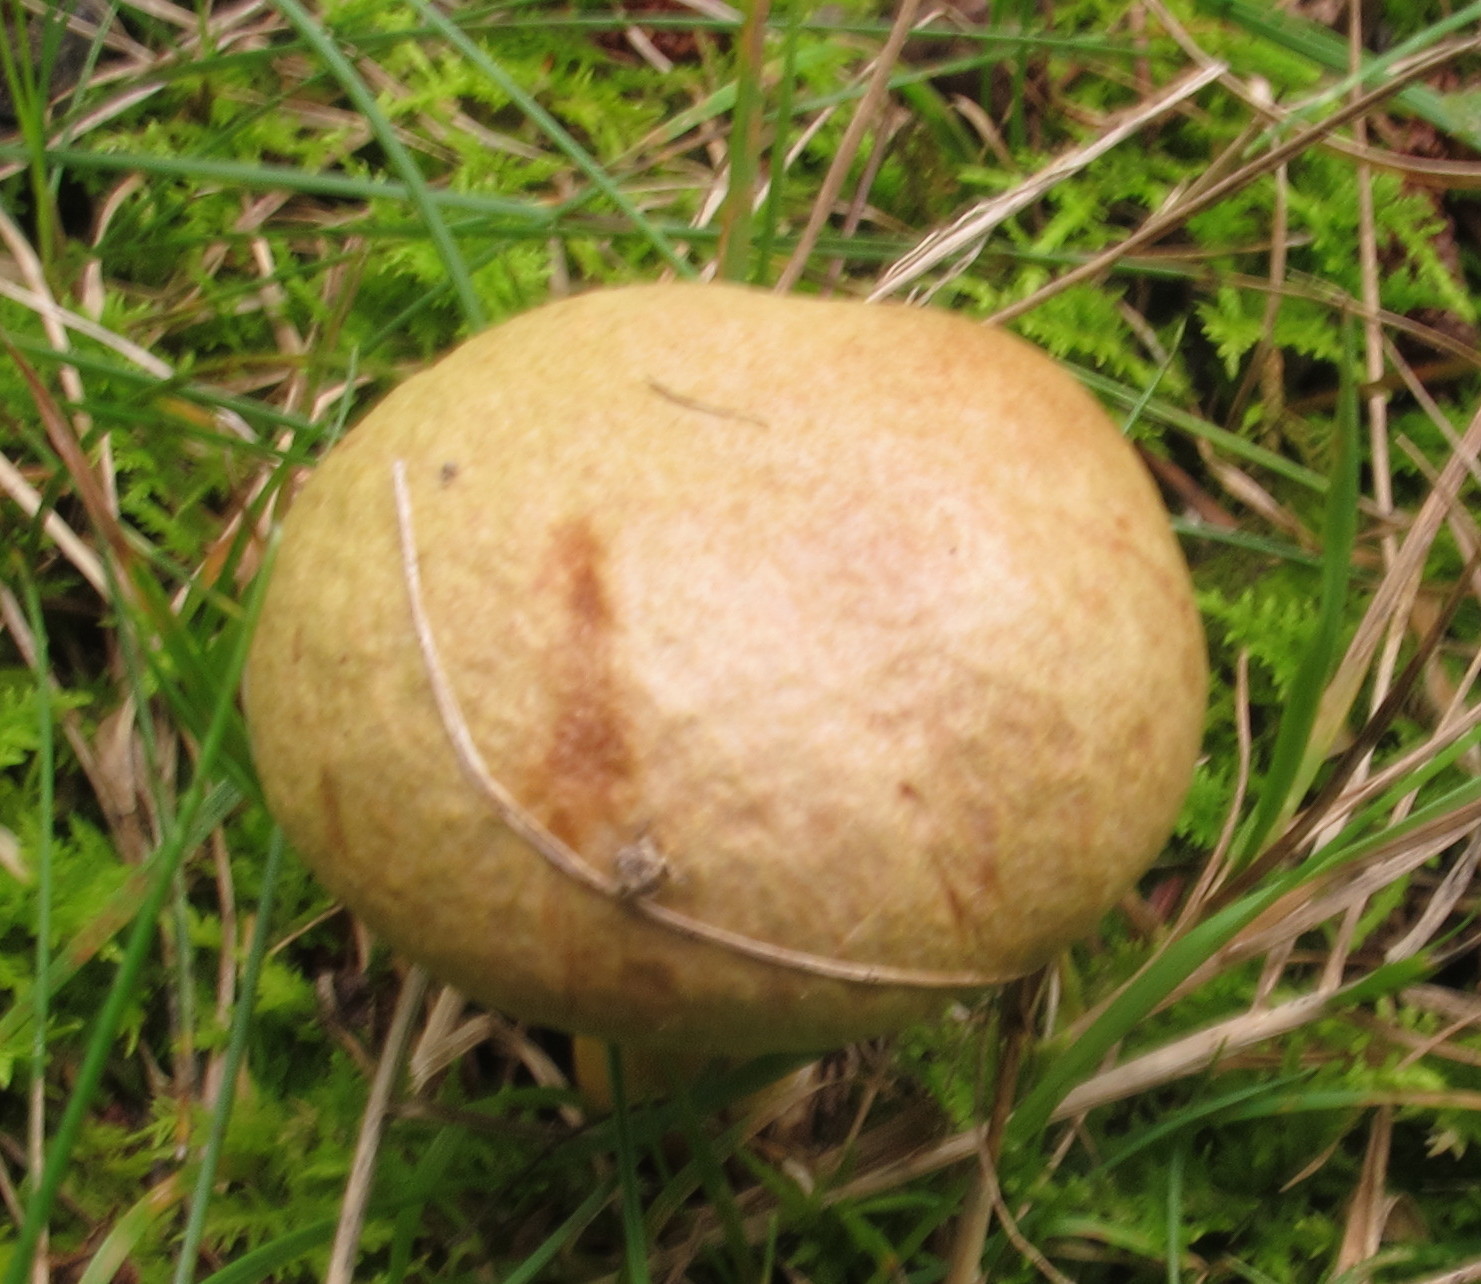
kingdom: Fungi
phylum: Basidiomycota
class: Agaricomycetes
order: Boletales
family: Boletaceae
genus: Aureoboletus
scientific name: Aureoboletus auriporus
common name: Sour gold-pored bolete
